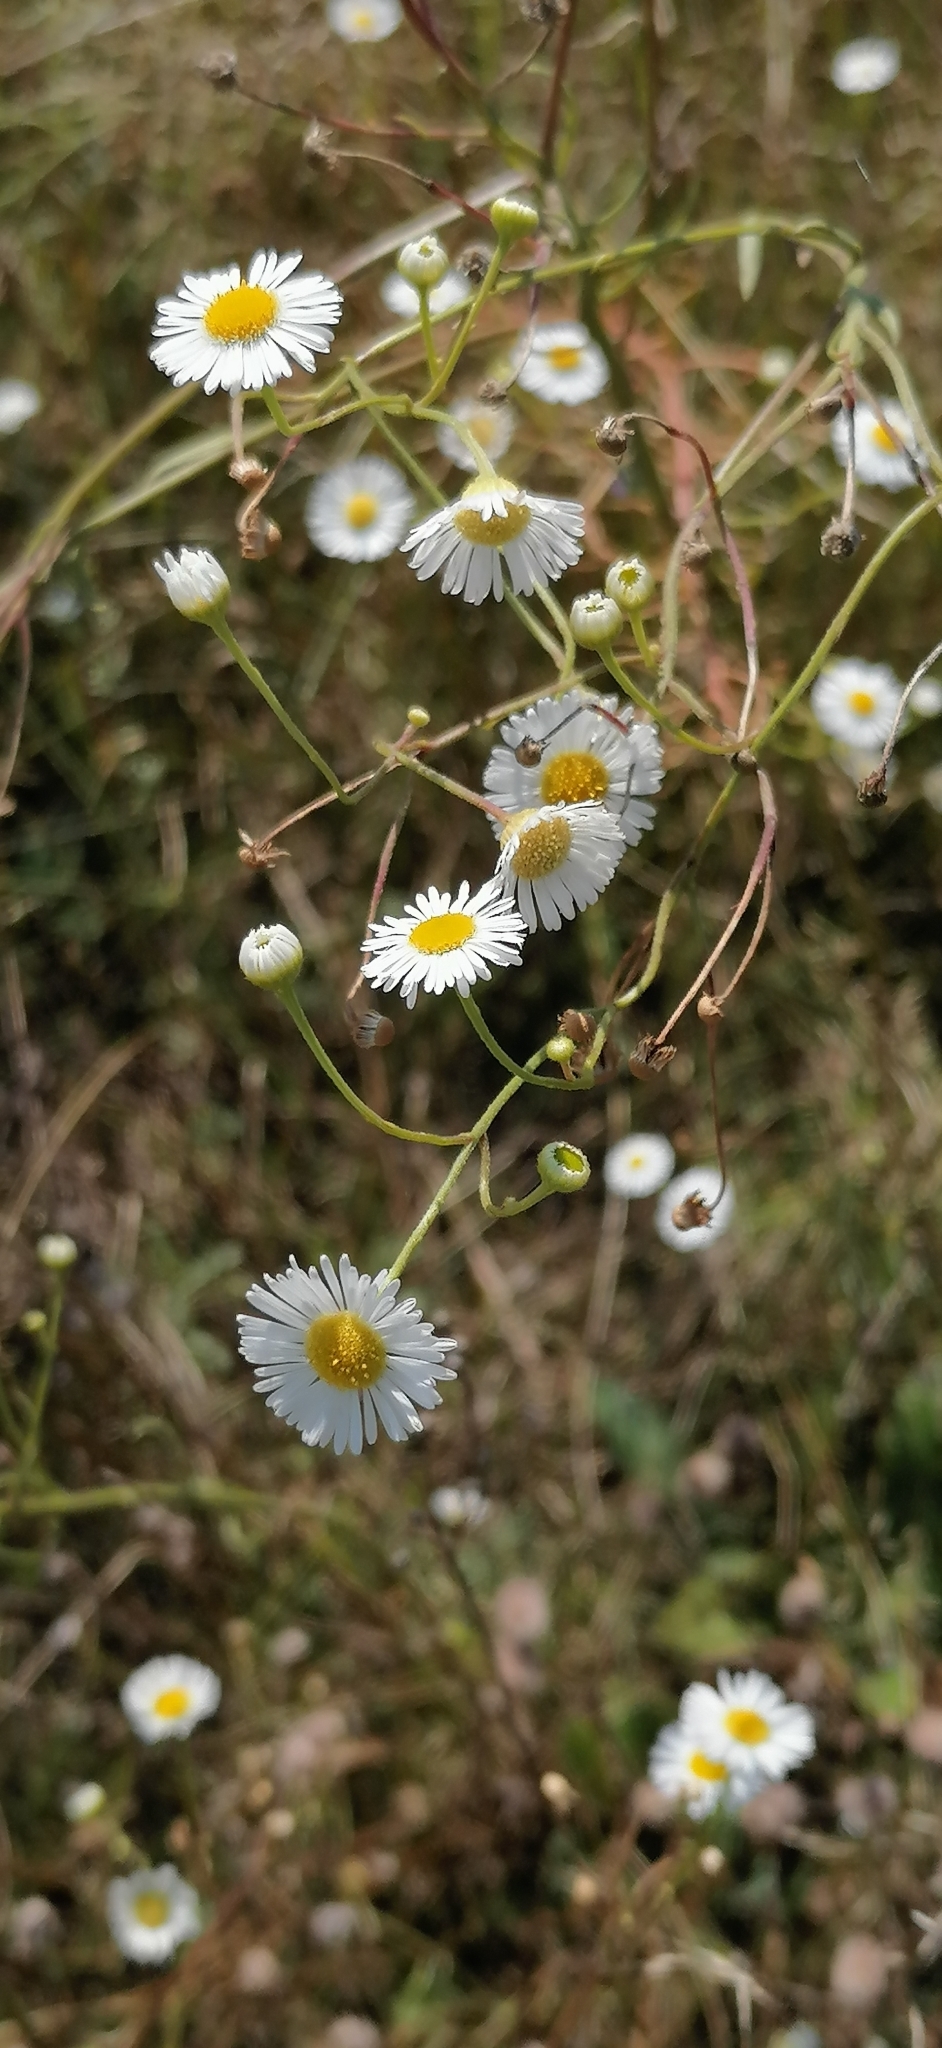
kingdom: Plantae
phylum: Tracheophyta
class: Magnoliopsida
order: Asterales
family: Asteraceae
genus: Erigeron
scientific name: Erigeron strigosus
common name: Common eastern fleabane
